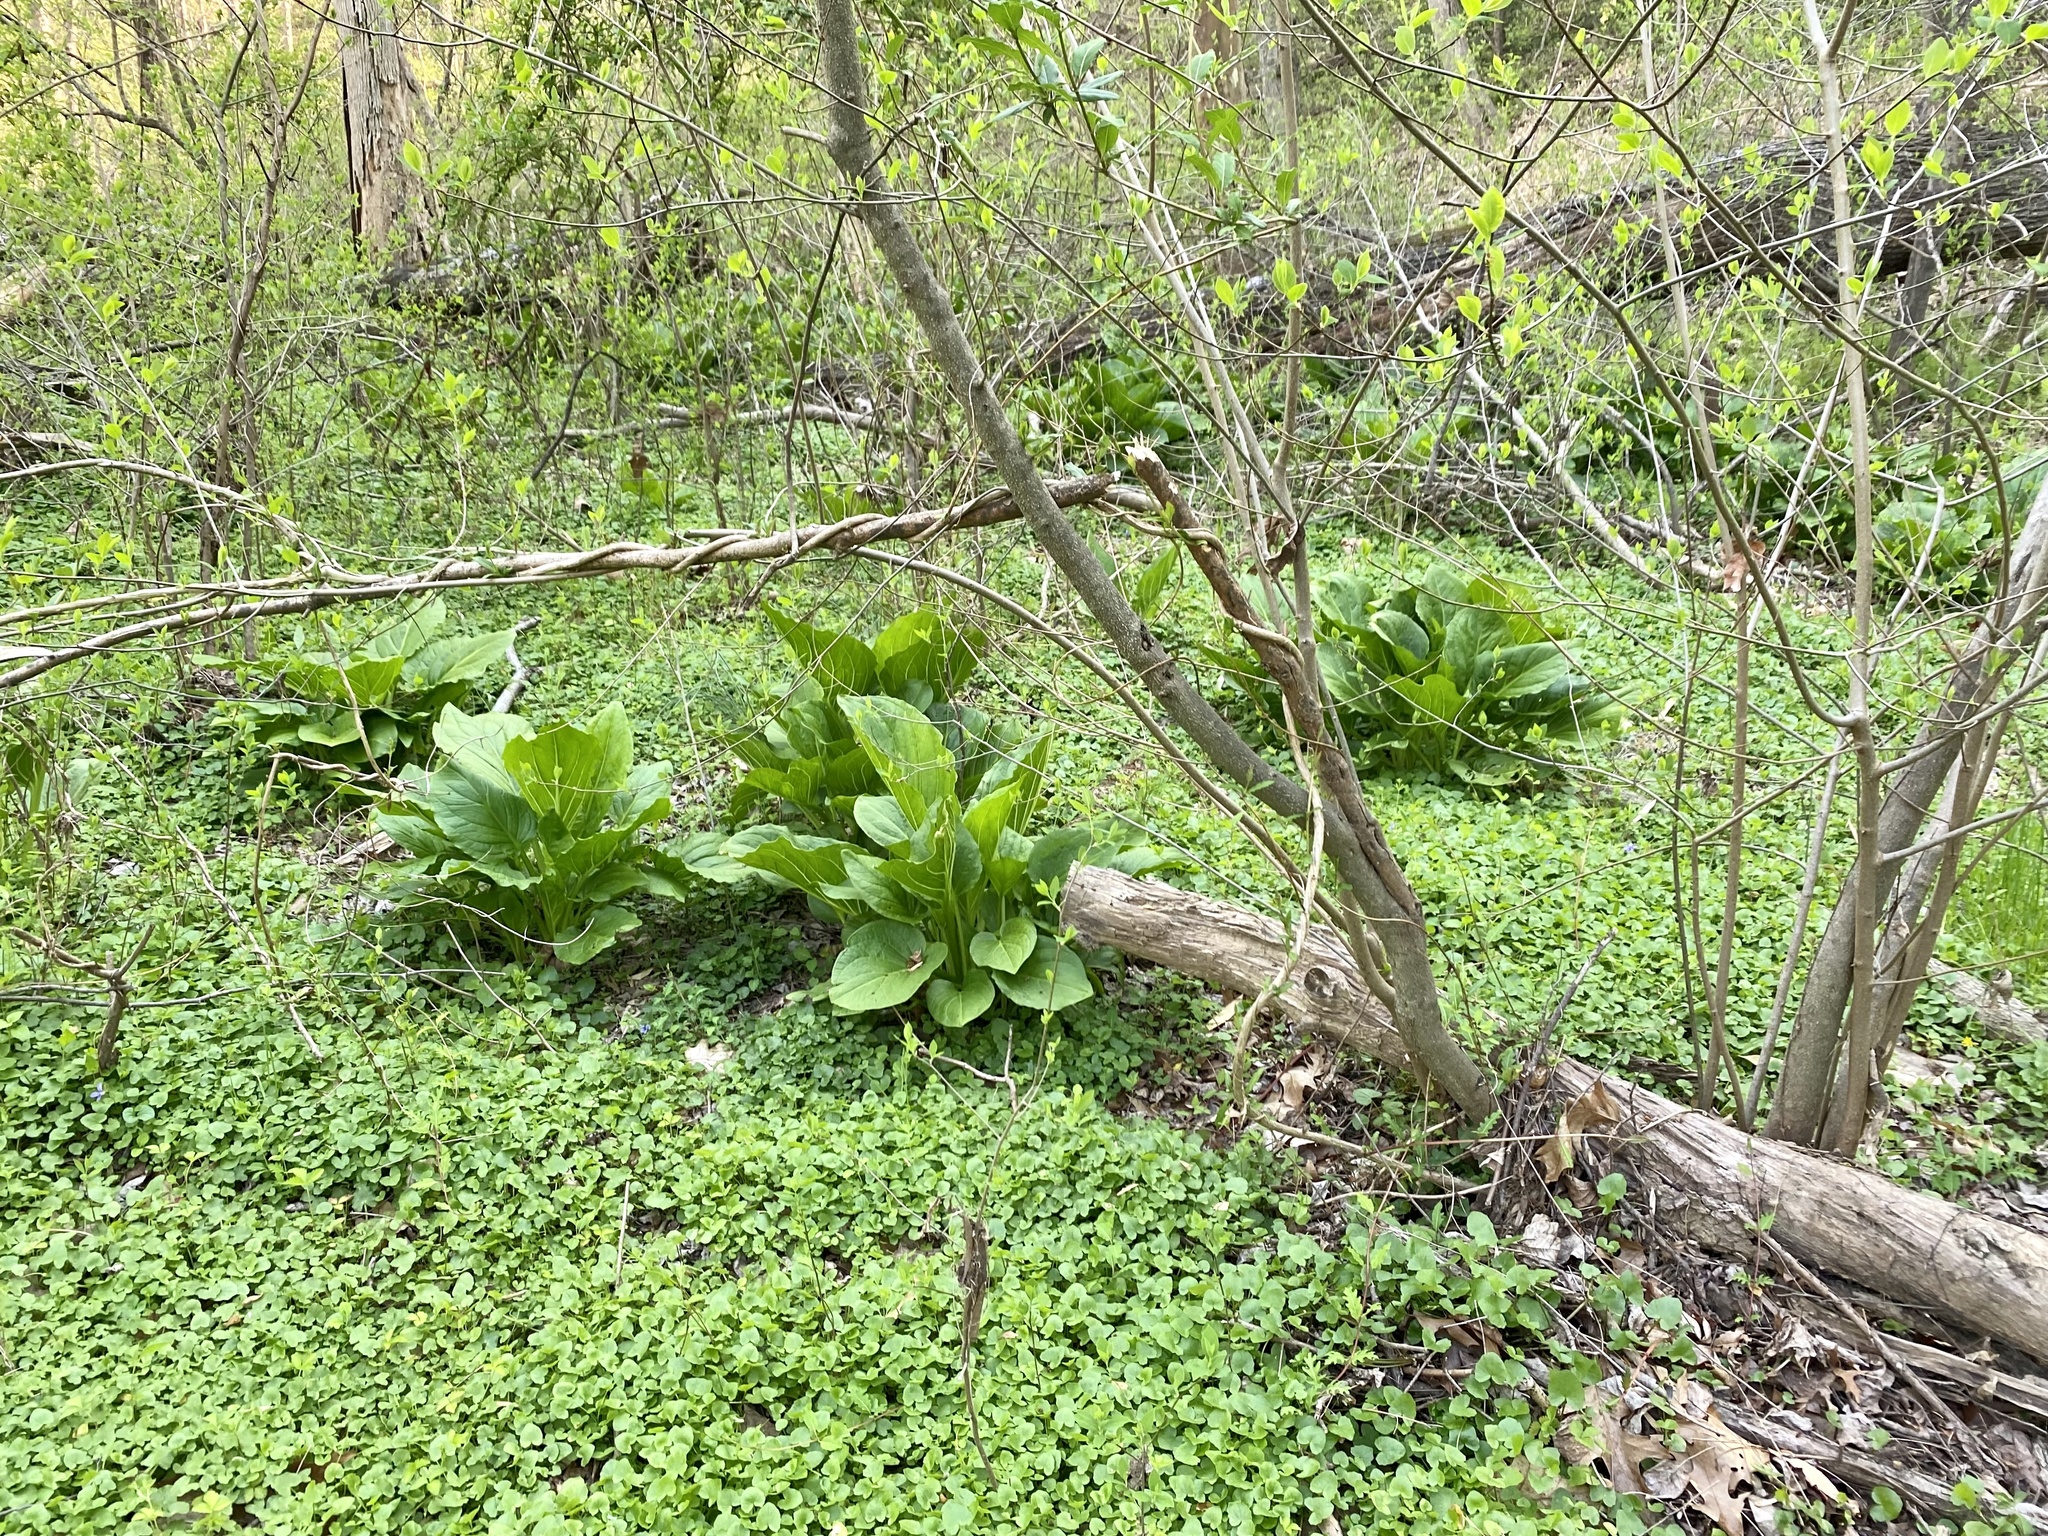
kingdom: Plantae
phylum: Tracheophyta
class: Liliopsida
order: Alismatales
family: Araceae
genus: Symplocarpus
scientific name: Symplocarpus foetidus
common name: Eastern skunk cabbage
